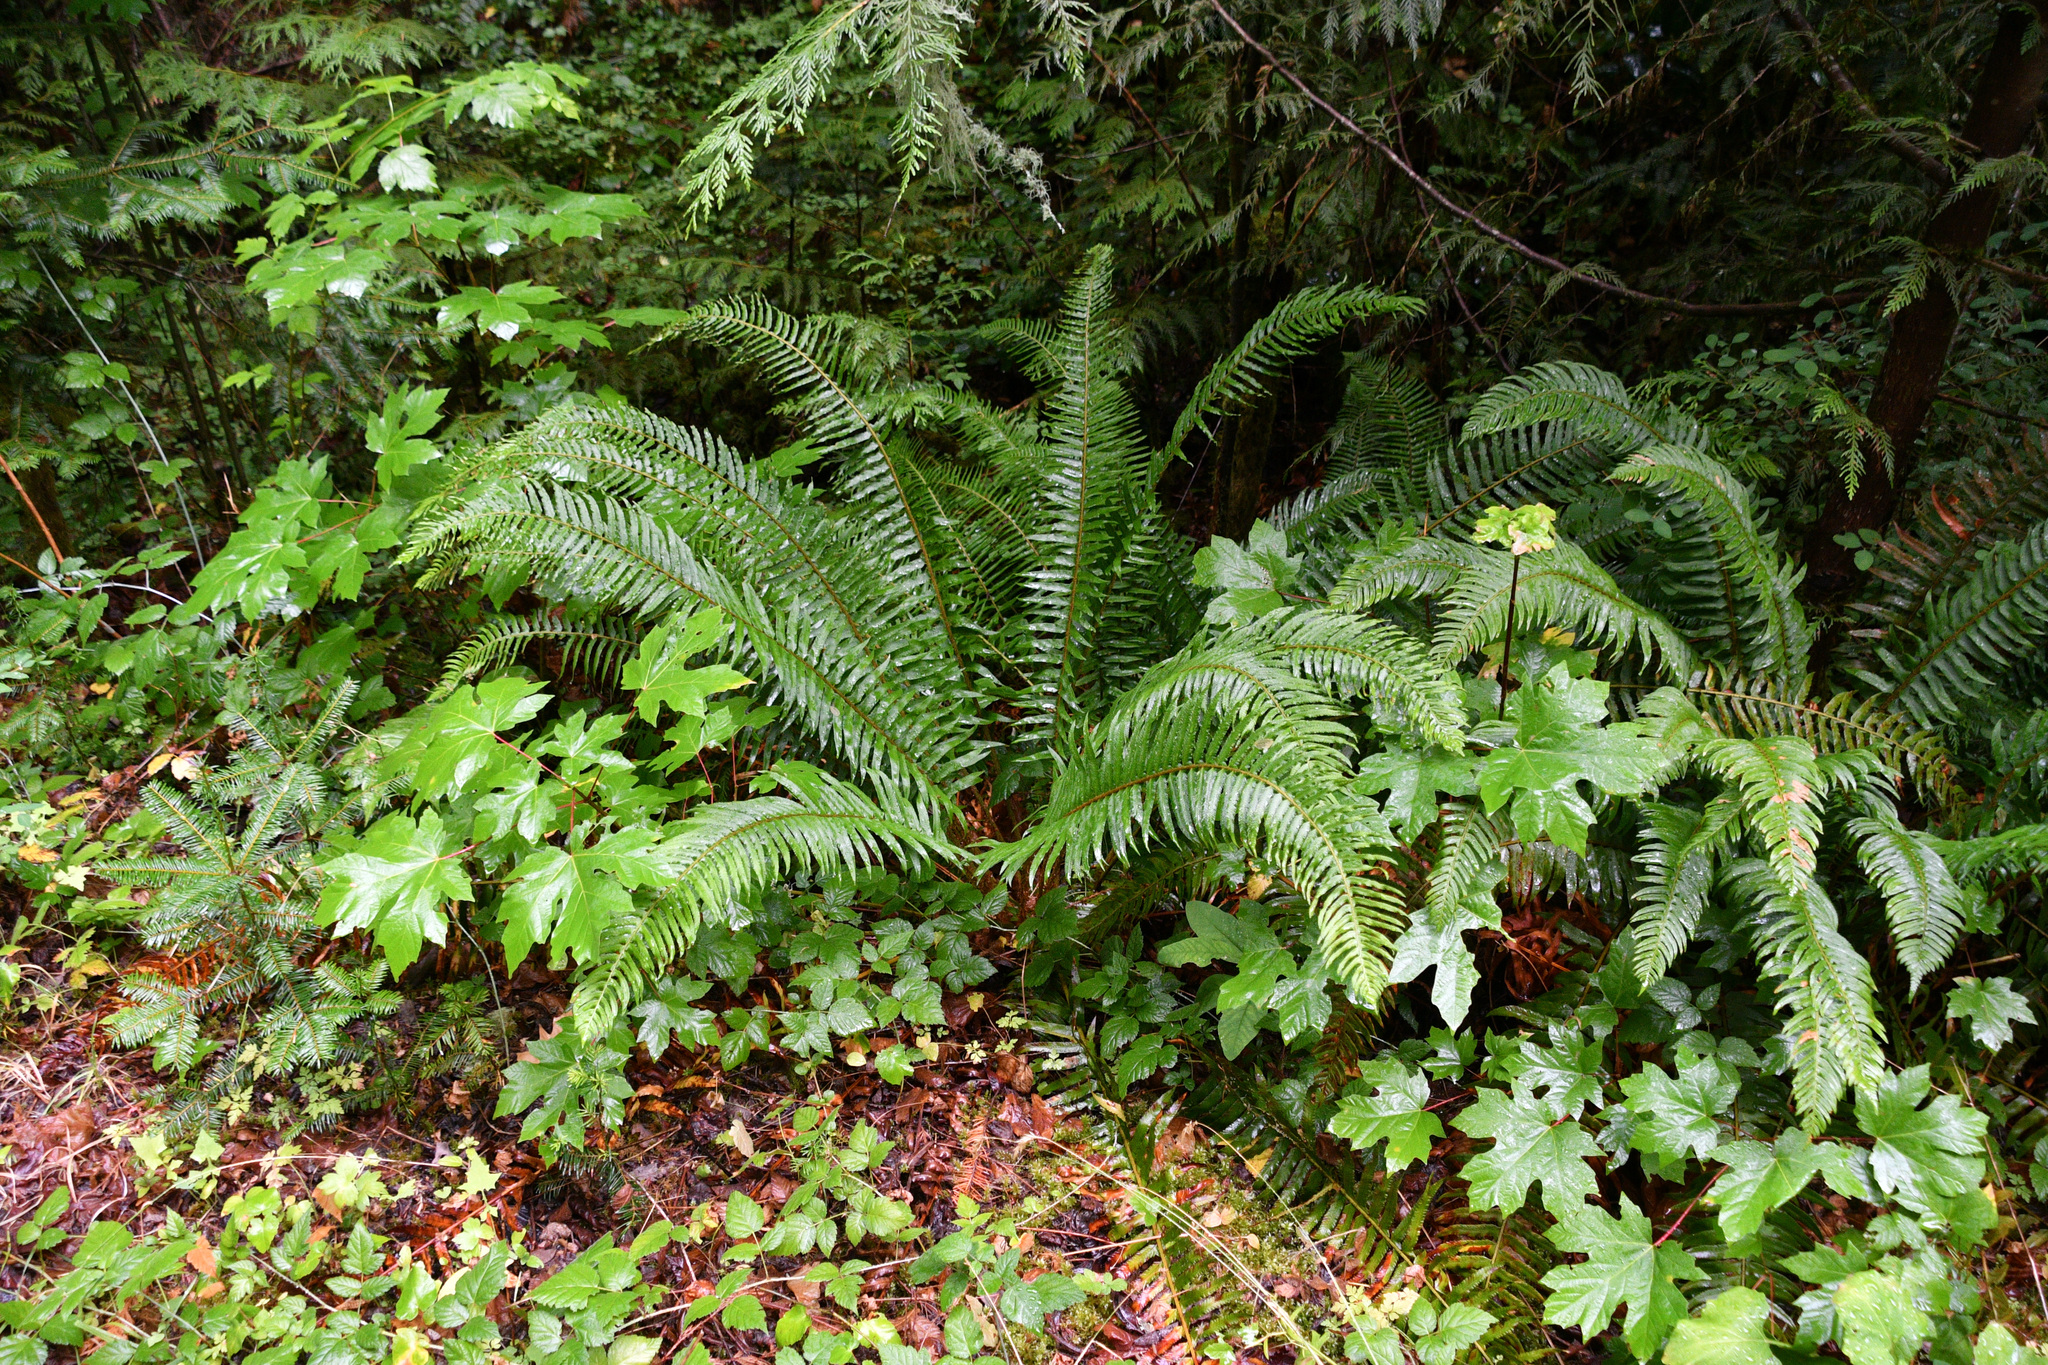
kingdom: Plantae
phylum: Tracheophyta
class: Polypodiopsida
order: Polypodiales
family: Dryopteridaceae
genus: Polystichum
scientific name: Polystichum munitum
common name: Western sword-fern
